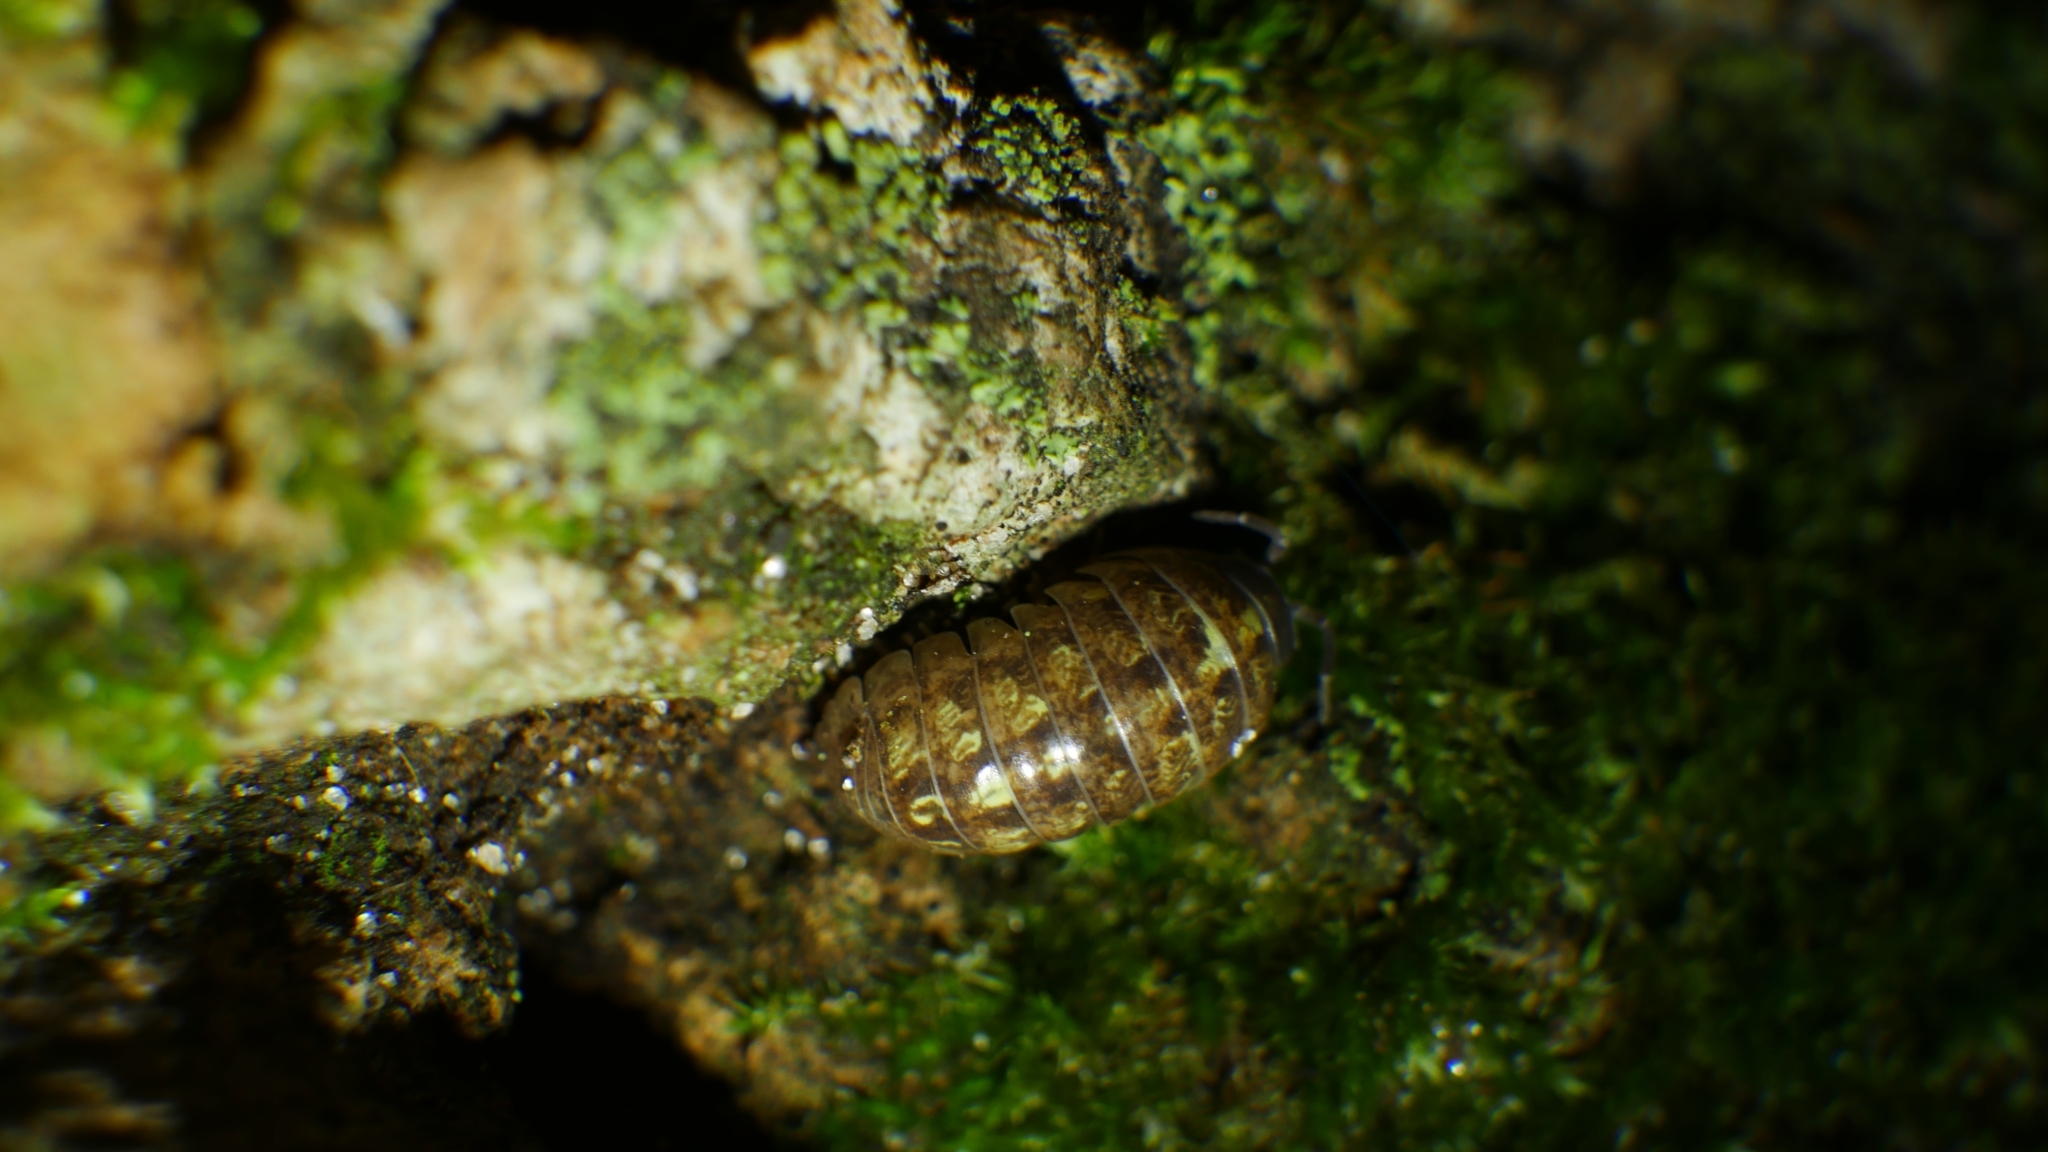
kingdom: Animalia
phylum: Arthropoda
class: Malacostraca
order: Isopoda
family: Armadillidiidae
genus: Armadillidium
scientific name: Armadillidium vulgare
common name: Common pill woodlouse
